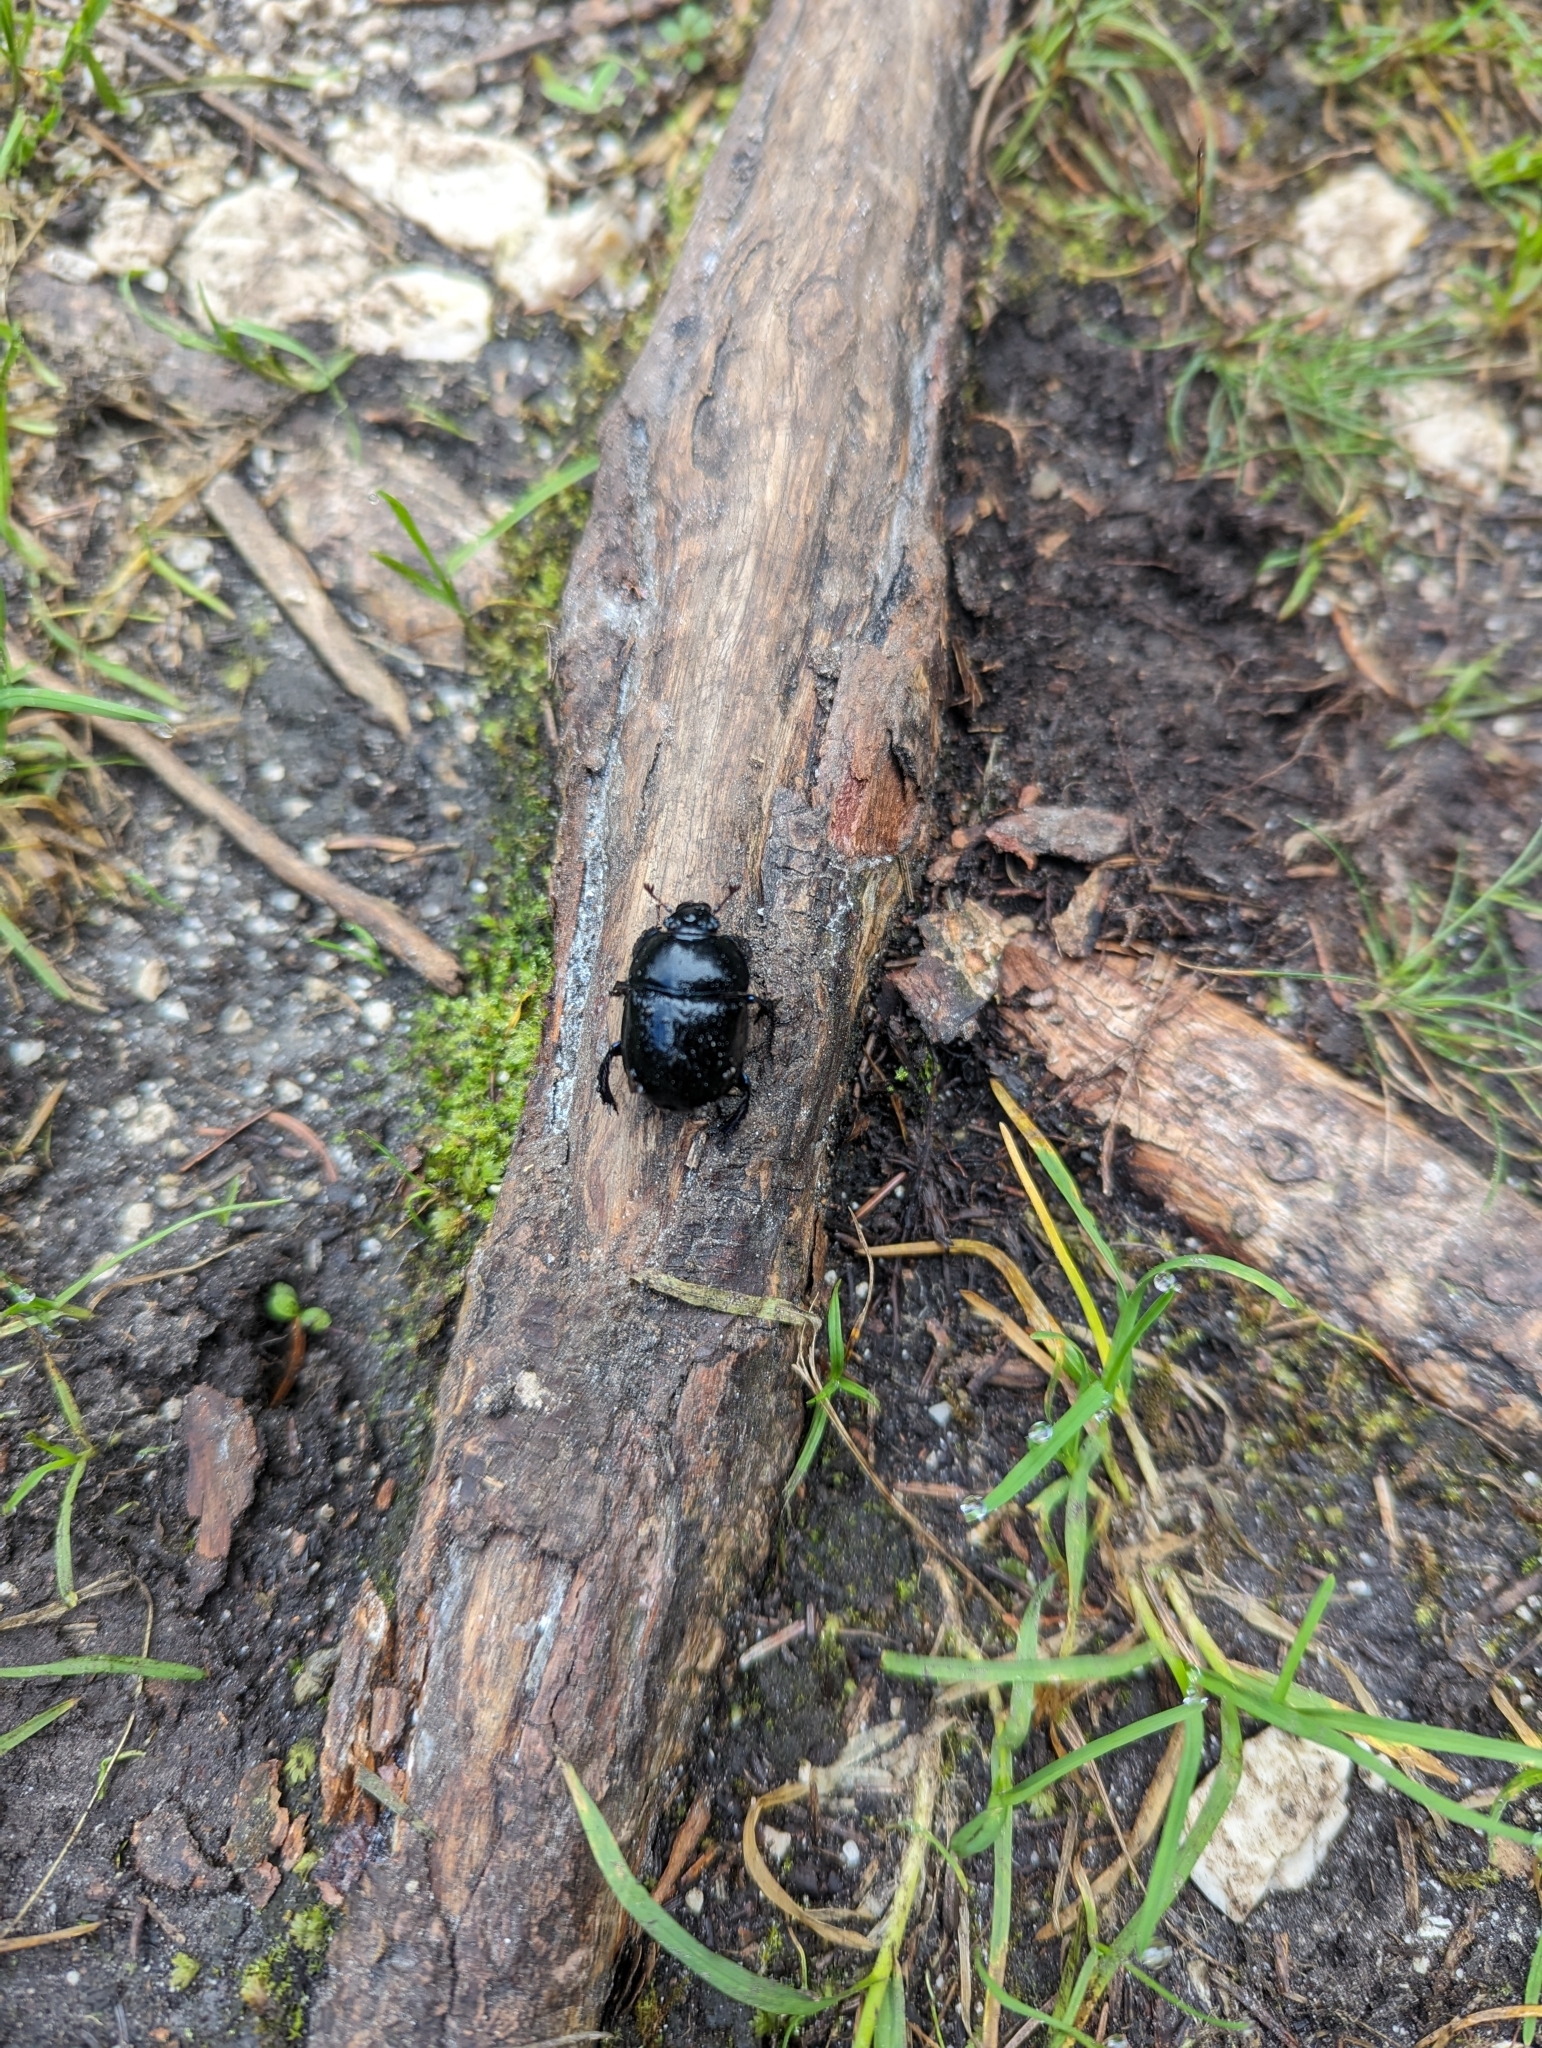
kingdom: Animalia
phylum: Arthropoda
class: Insecta
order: Coleoptera
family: Geotrupidae
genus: Anoplotrupes
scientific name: Anoplotrupes stercorosus
